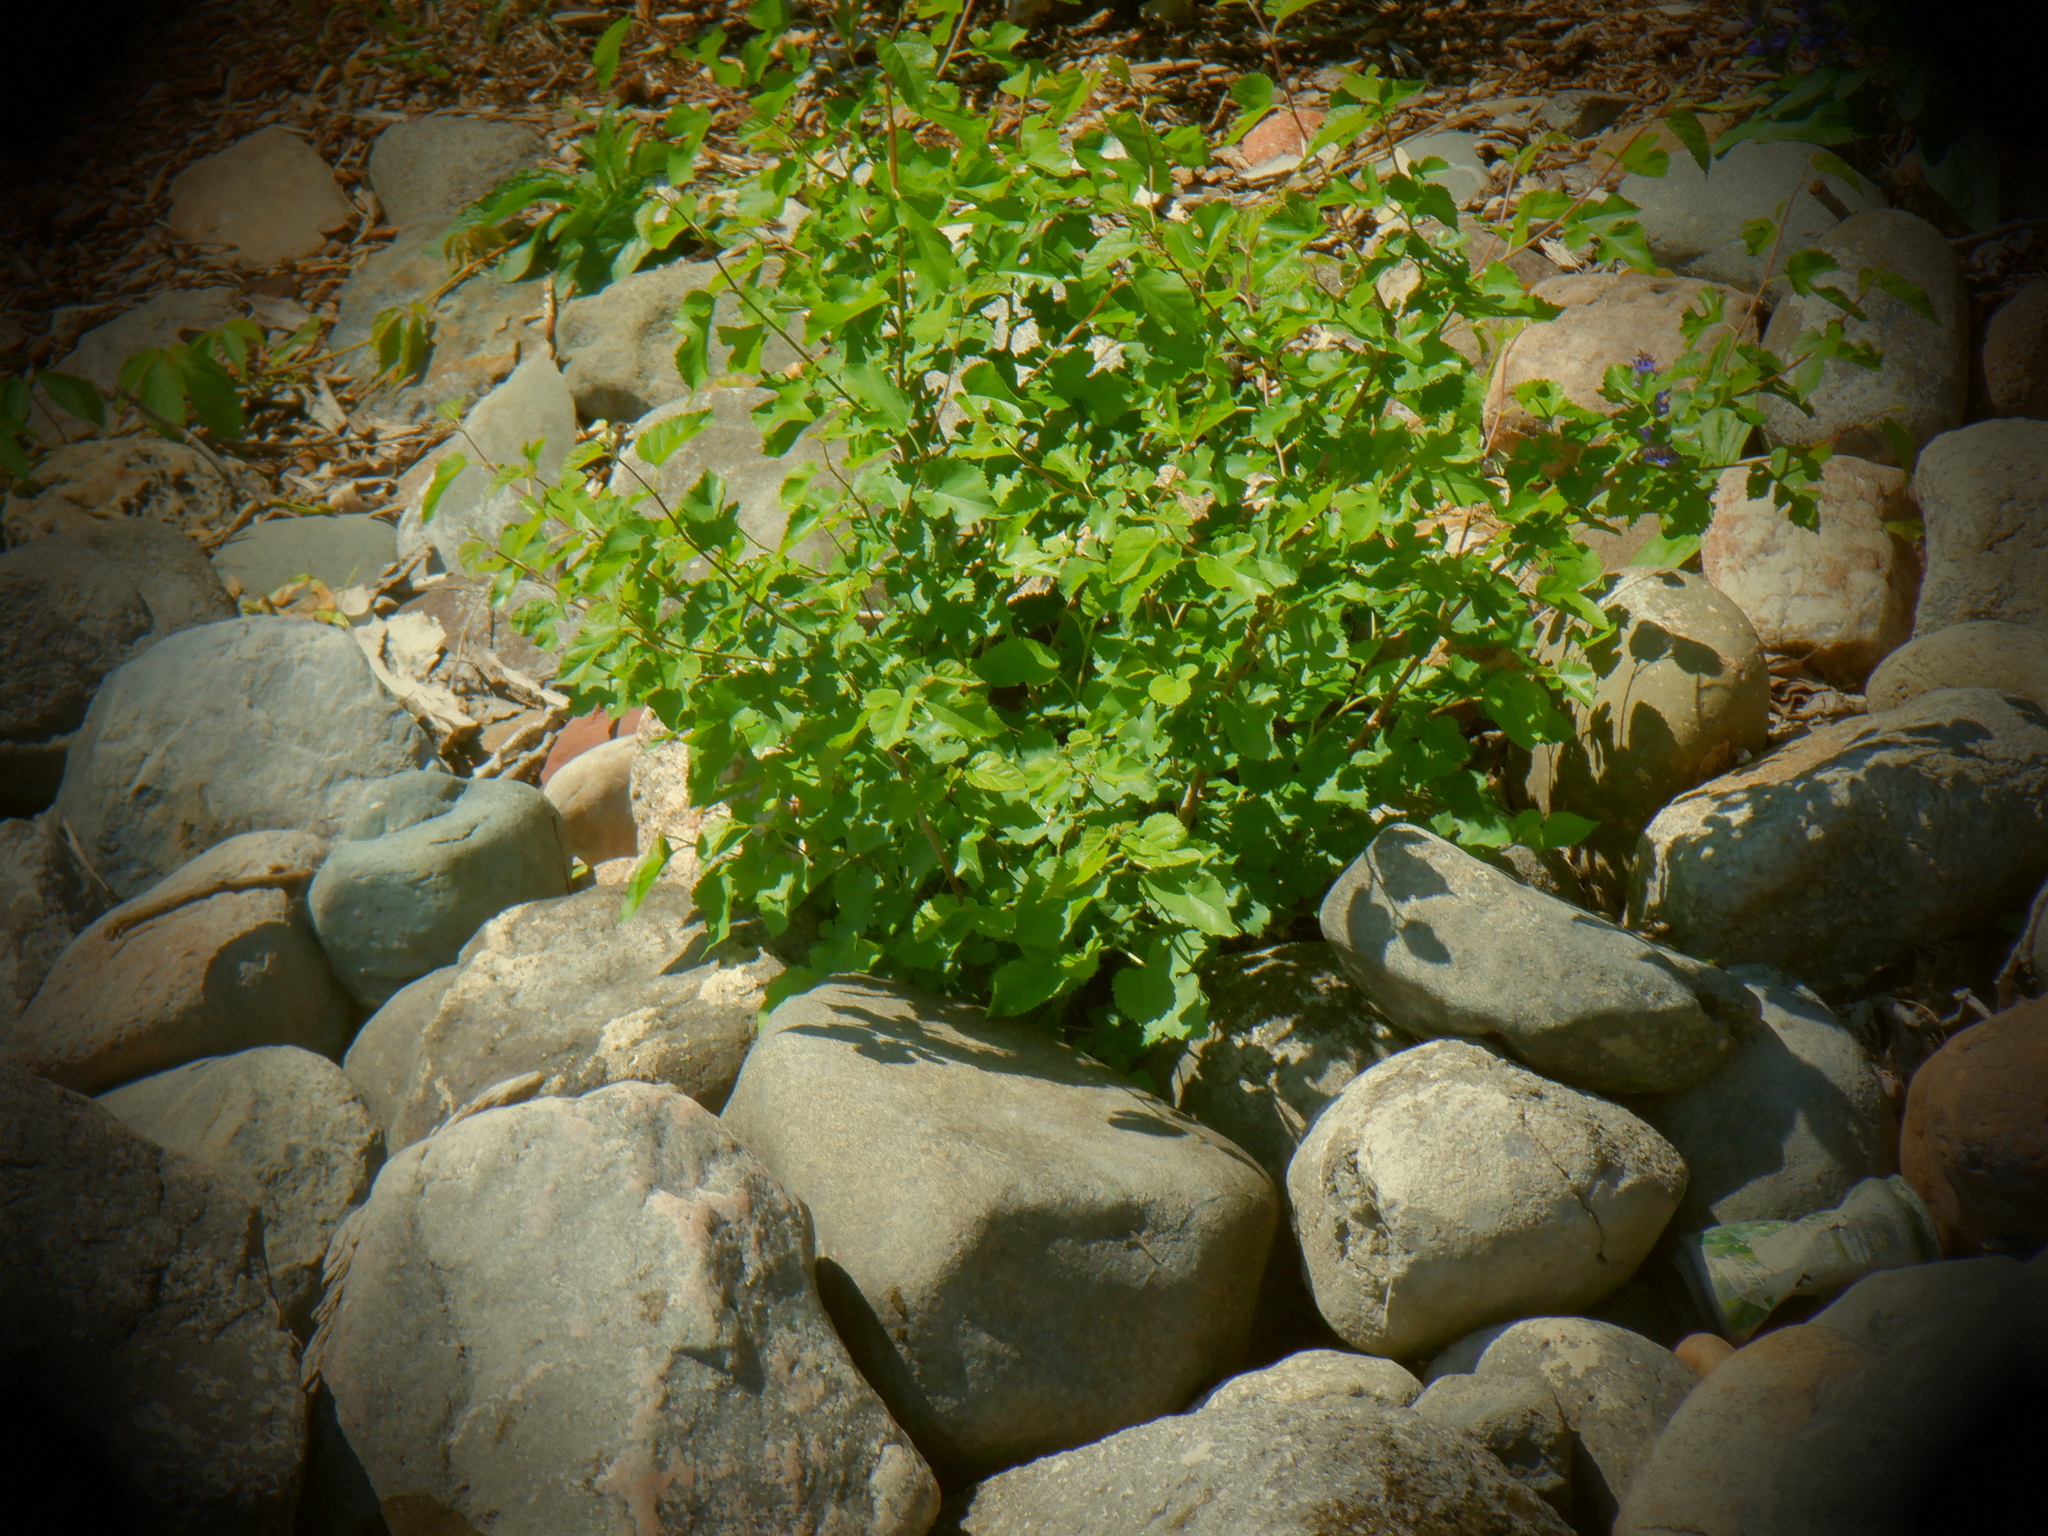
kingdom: Plantae
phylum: Tracheophyta
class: Magnoliopsida
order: Rosales
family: Moraceae
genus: Morus
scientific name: Morus alba
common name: White mulberry
